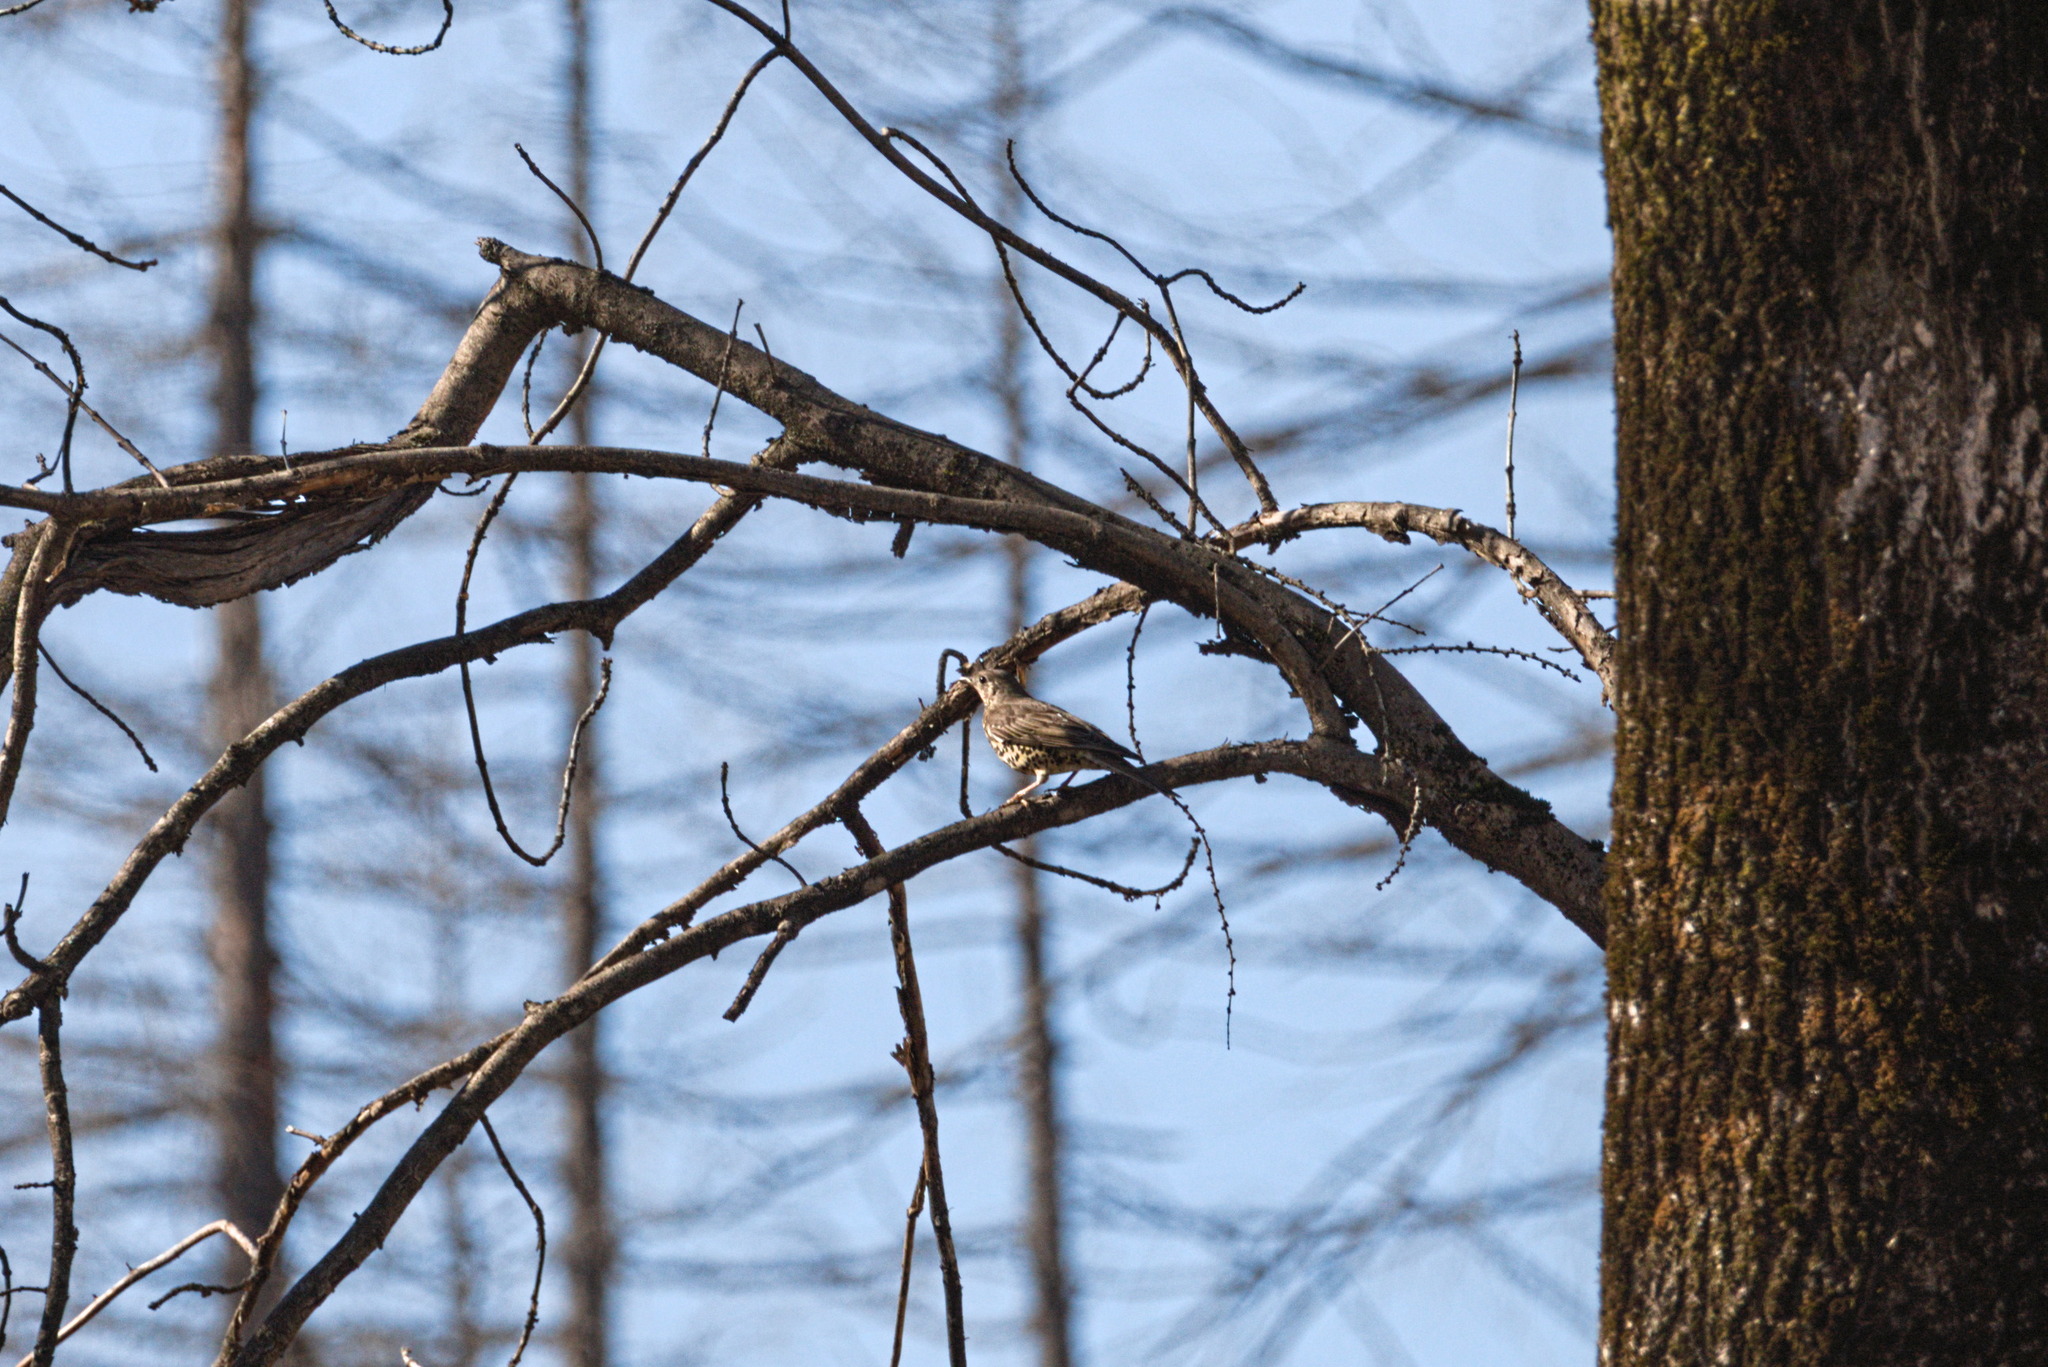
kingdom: Animalia
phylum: Chordata
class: Aves
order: Passeriformes
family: Turdidae
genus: Turdus
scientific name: Turdus viscivorus
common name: Mistle thrush
